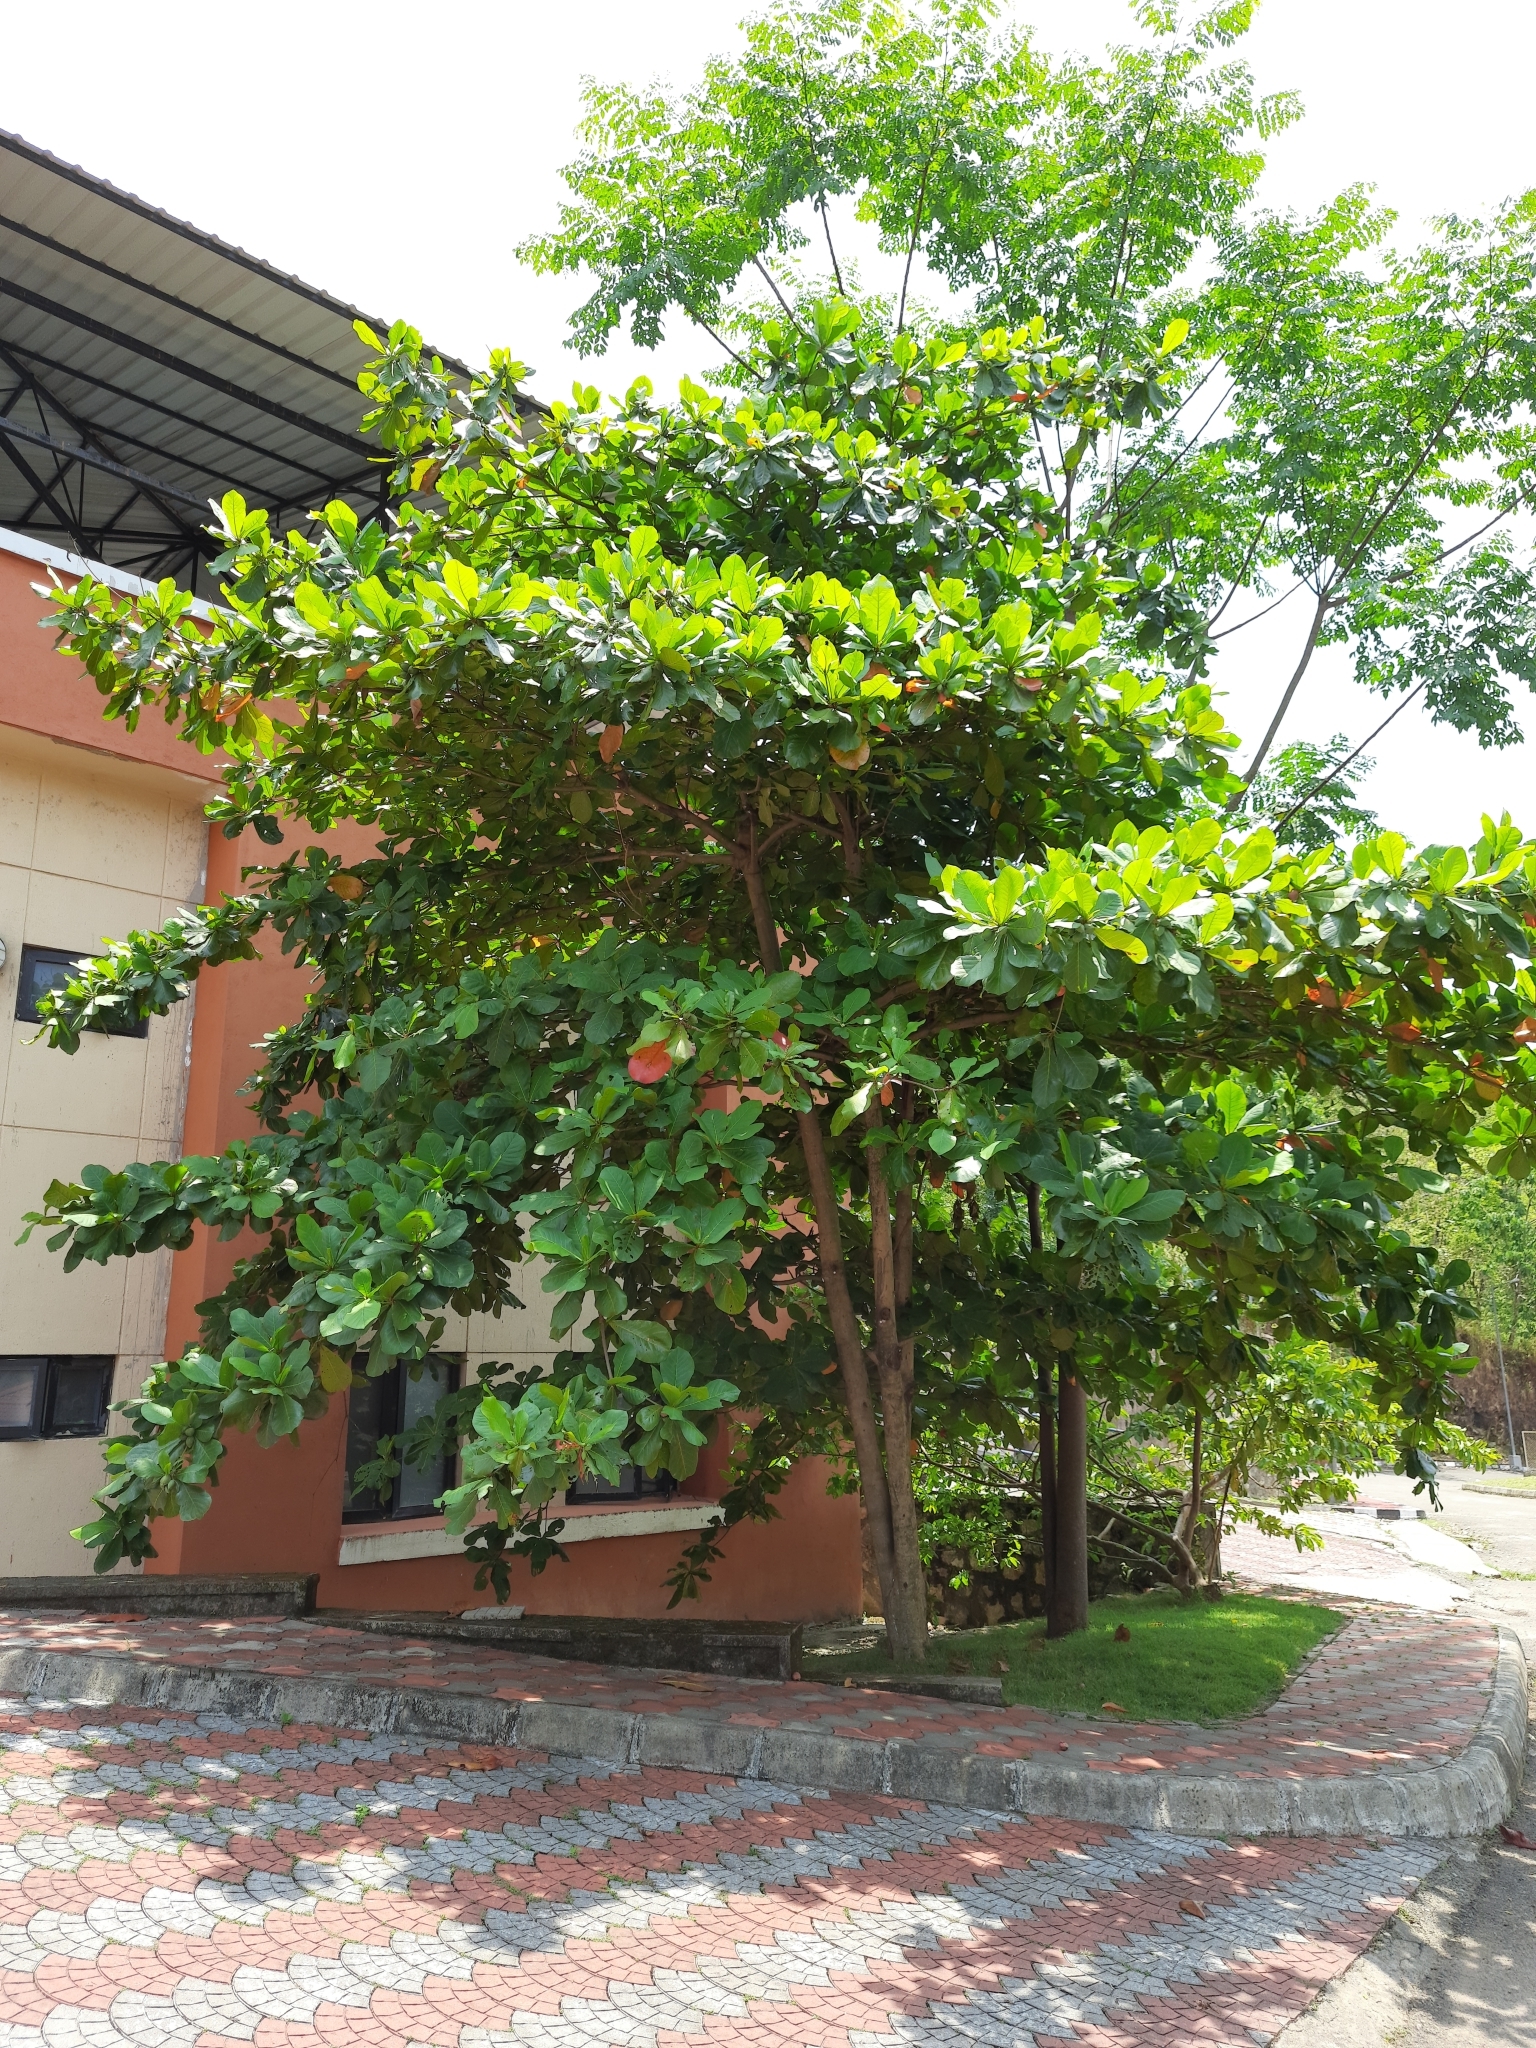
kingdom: Plantae
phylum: Tracheophyta
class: Magnoliopsida
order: Myrtales
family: Combretaceae
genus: Terminalia
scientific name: Terminalia catappa
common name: Tropical almond
